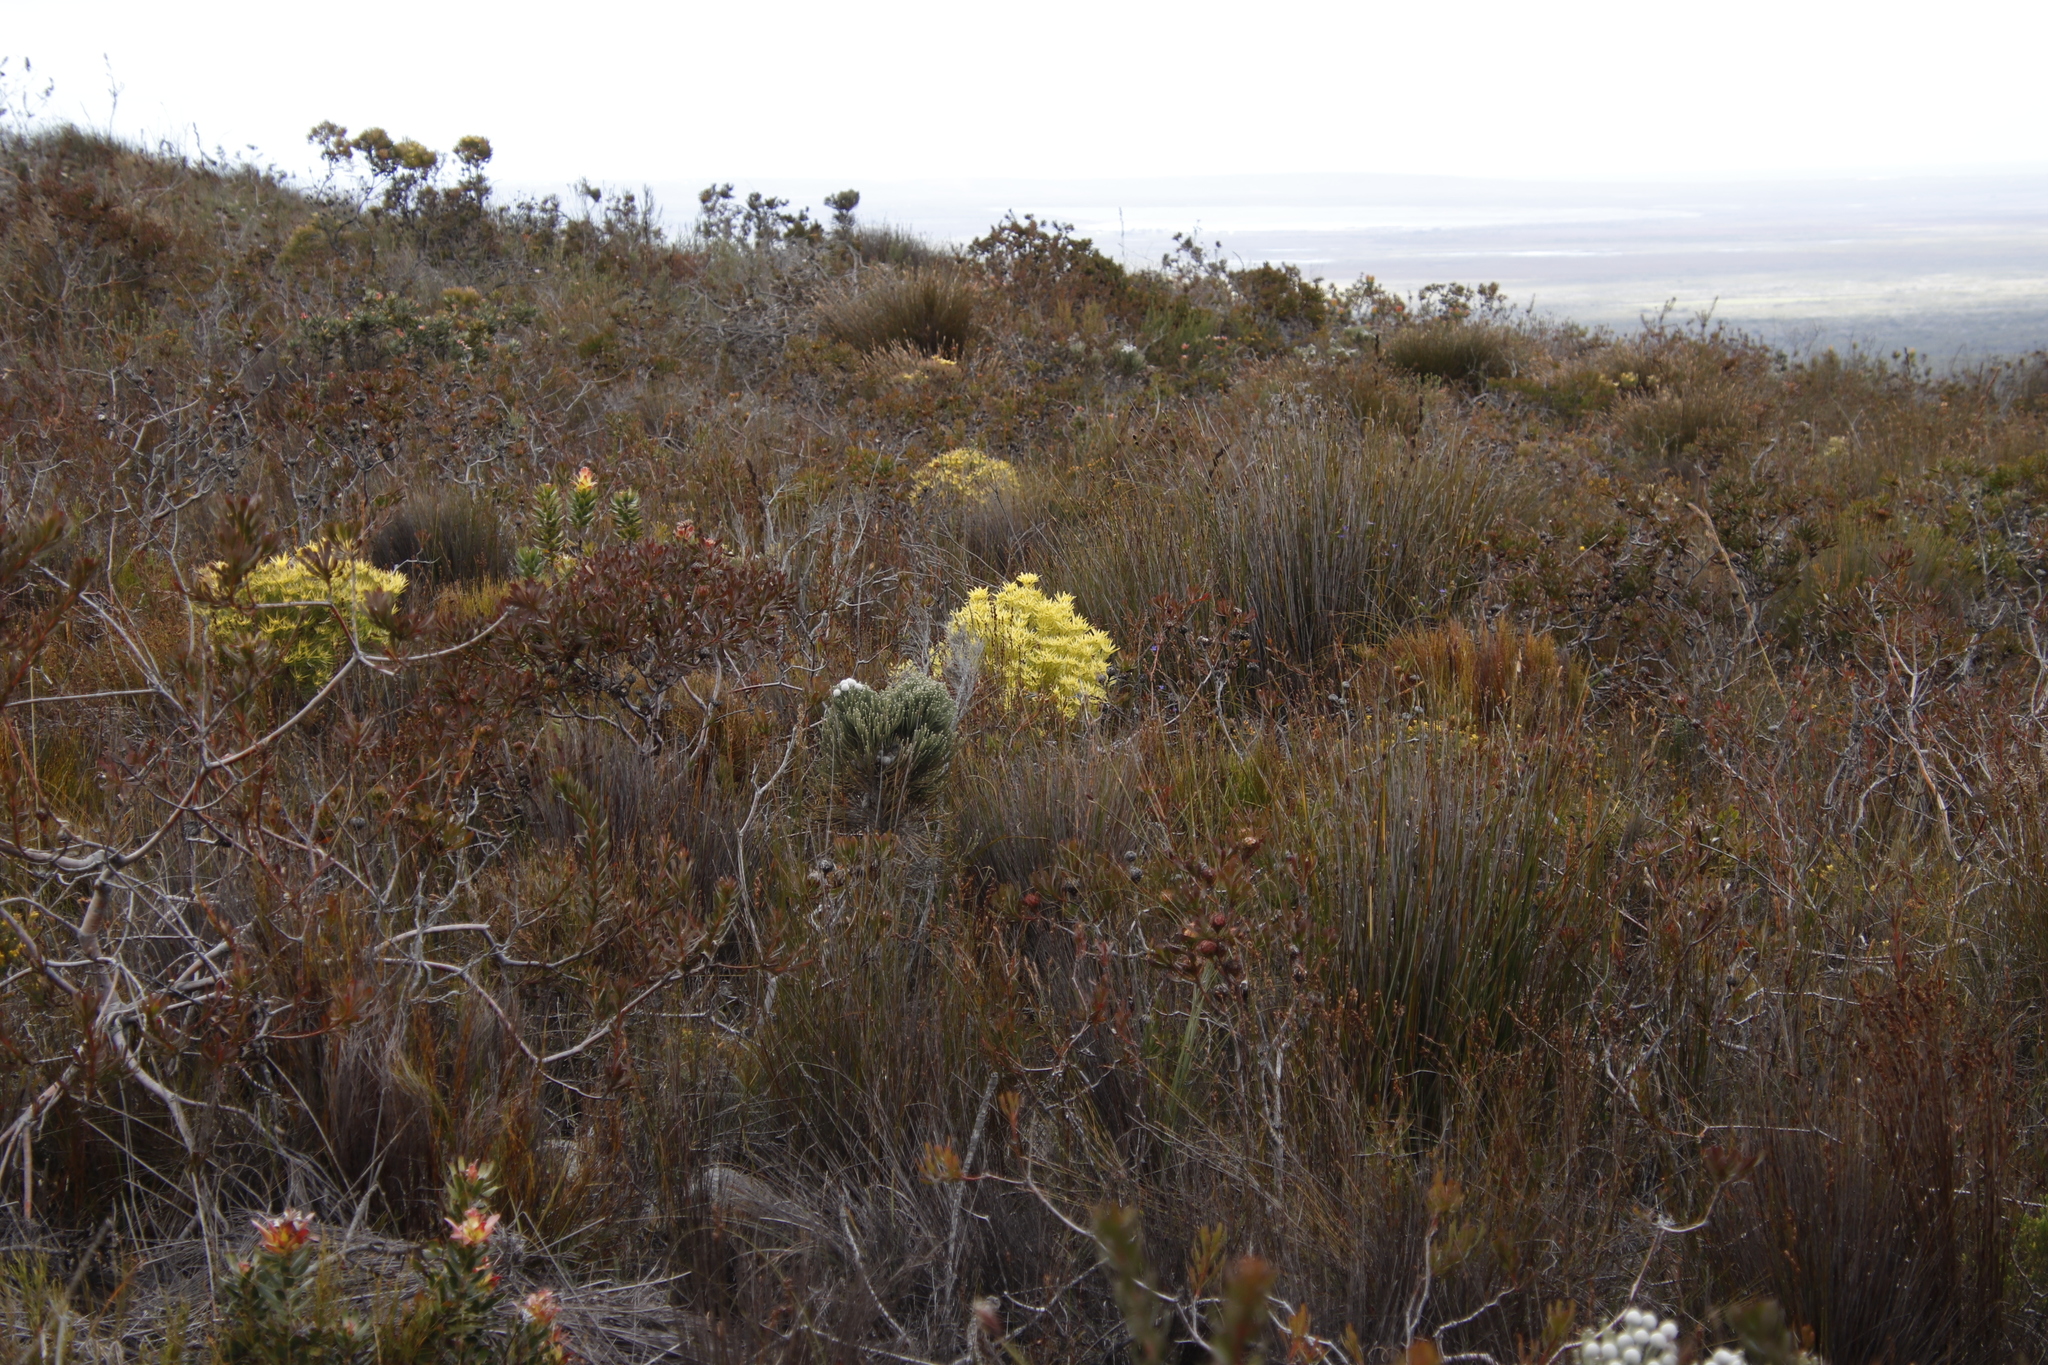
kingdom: Plantae
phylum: Tracheophyta
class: Magnoliopsida
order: Proteales
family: Proteaceae
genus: Leucadendron
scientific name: Leucadendron xanthoconus
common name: Sickle-leaf conebush
